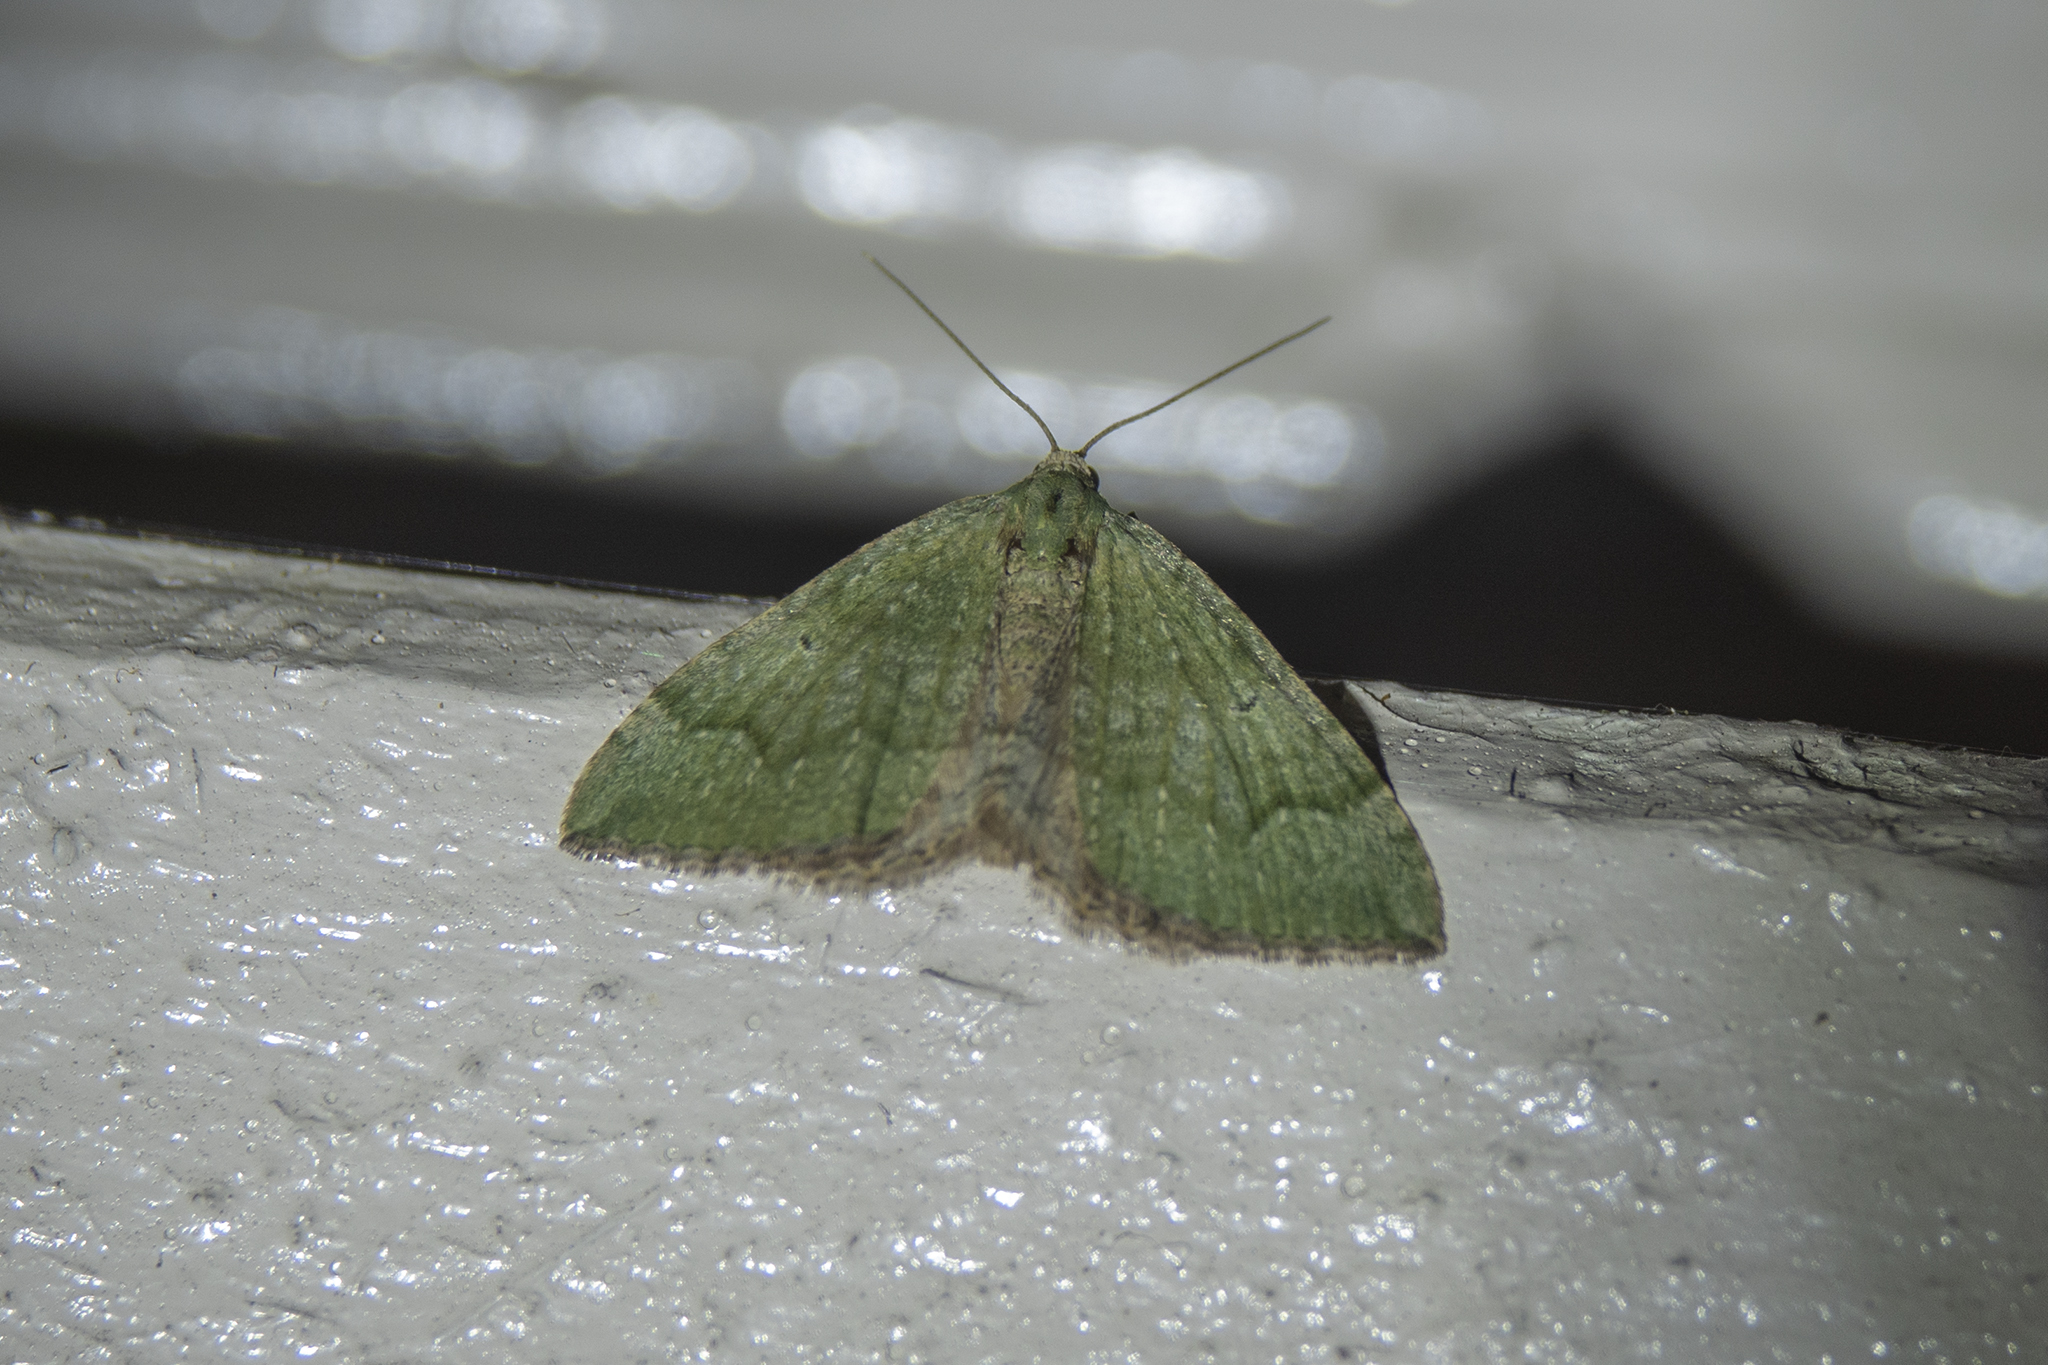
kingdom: Animalia
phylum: Arthropoda
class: Insecta
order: Lepidoptera
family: Geometridae
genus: Epyaxa
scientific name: Epyaxa rosearia
